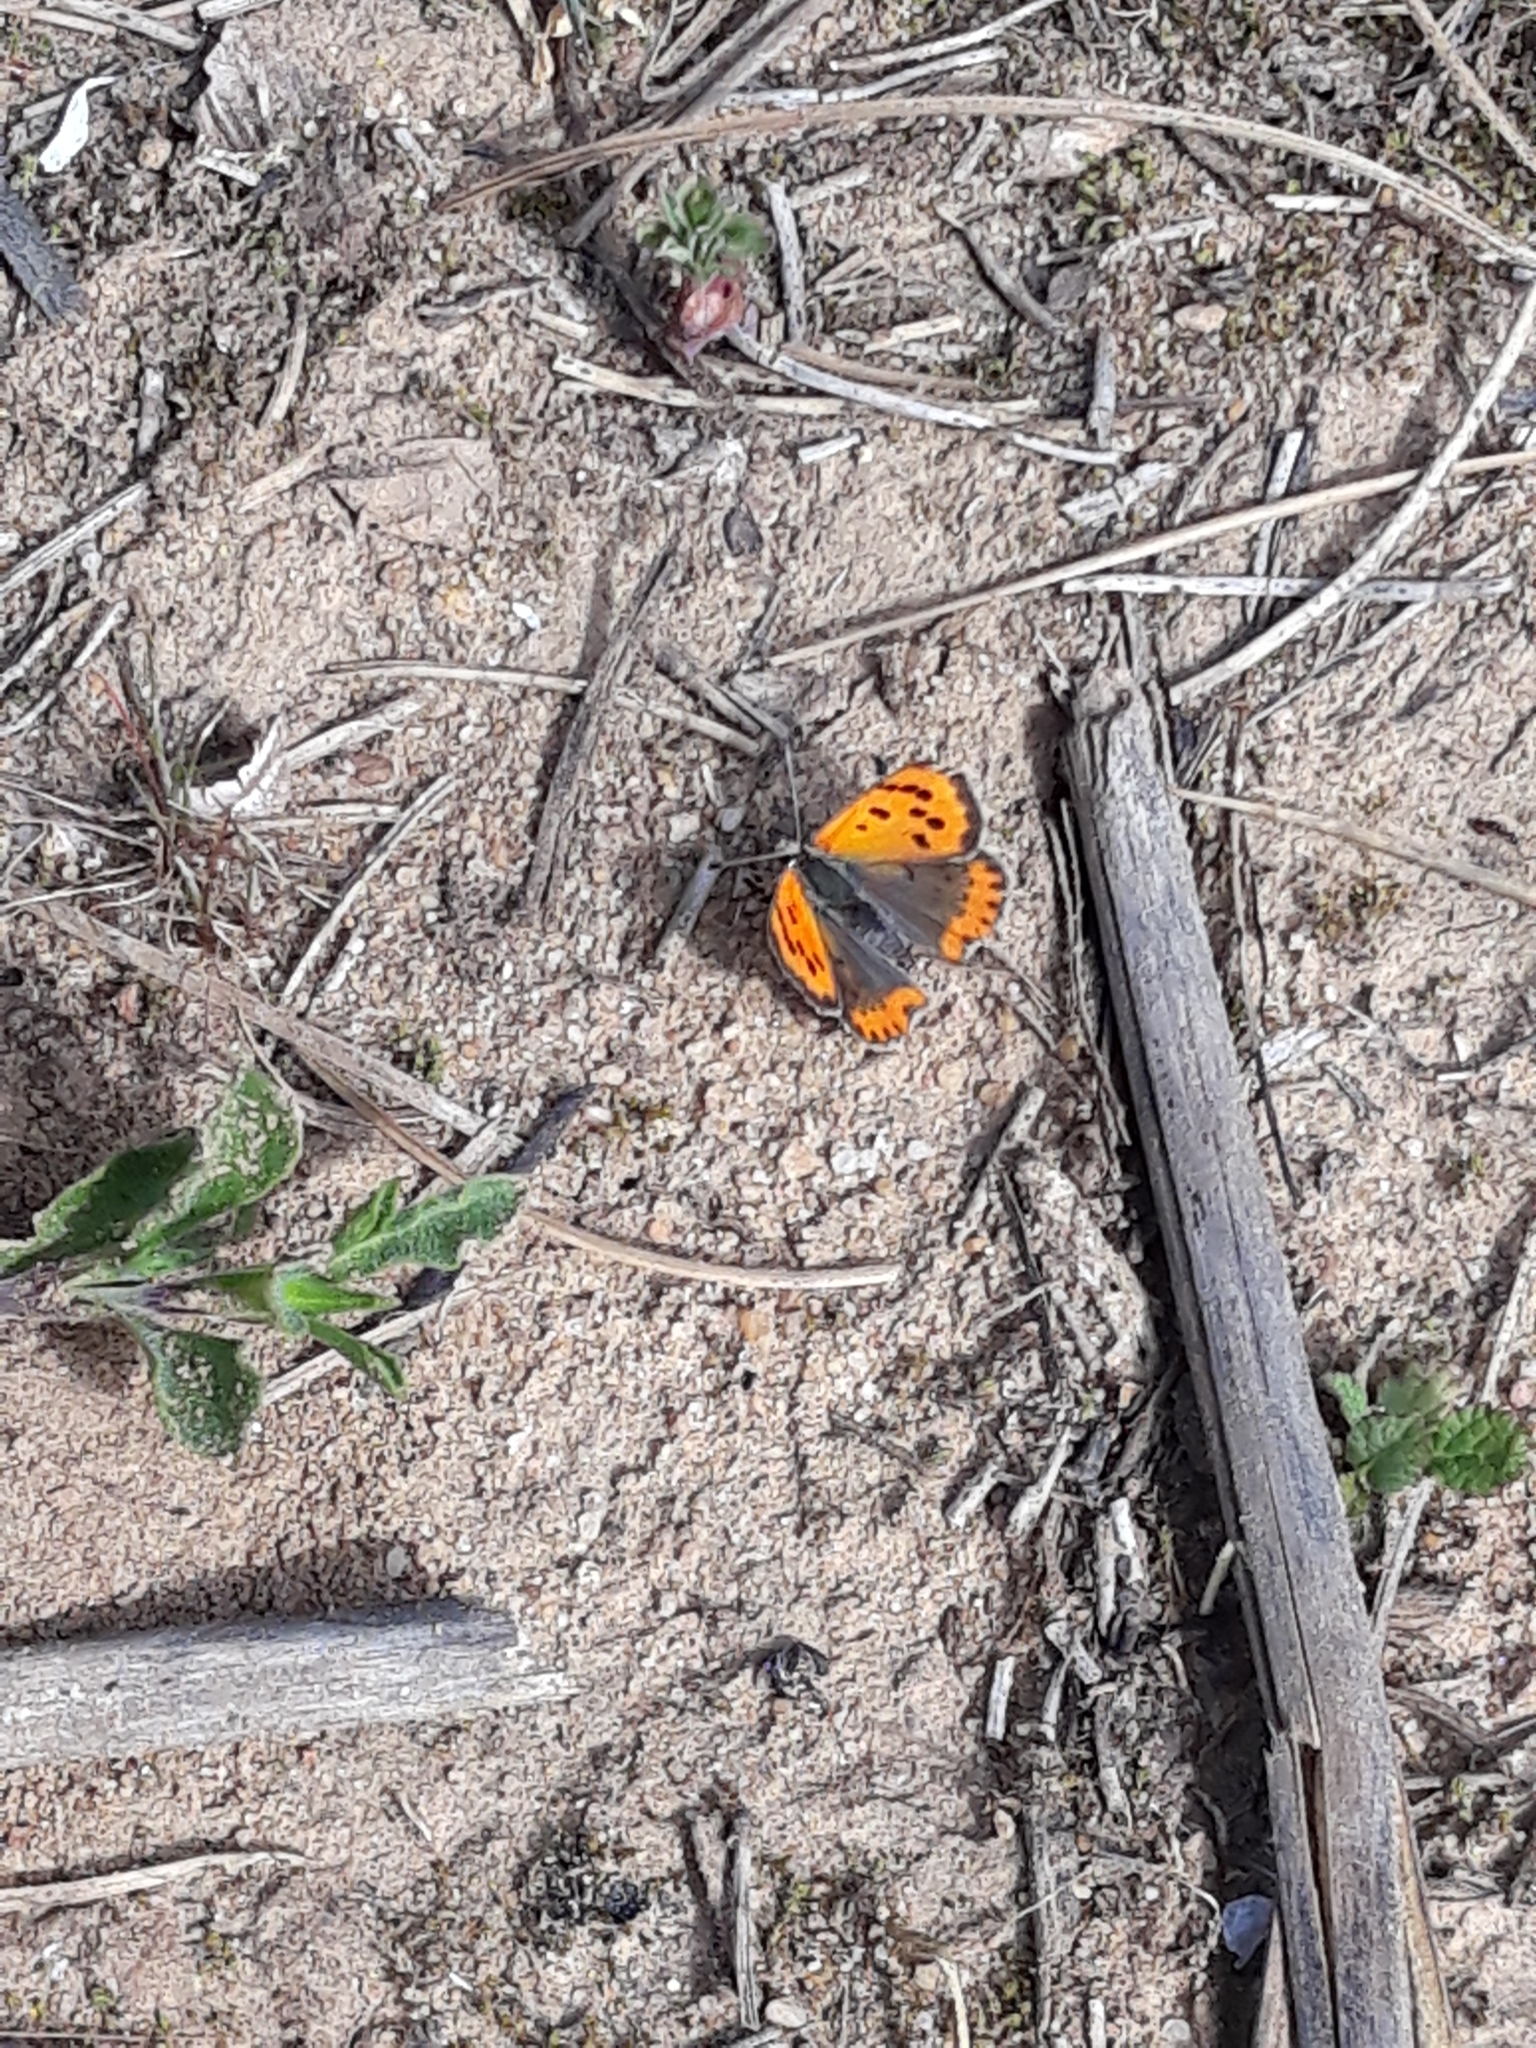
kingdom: Animalia
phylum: Arthropoda
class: Insecta
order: Lepidoptera
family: Lycaenidae
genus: Lycaena
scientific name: Lycaena phlaeas
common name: Small copper
